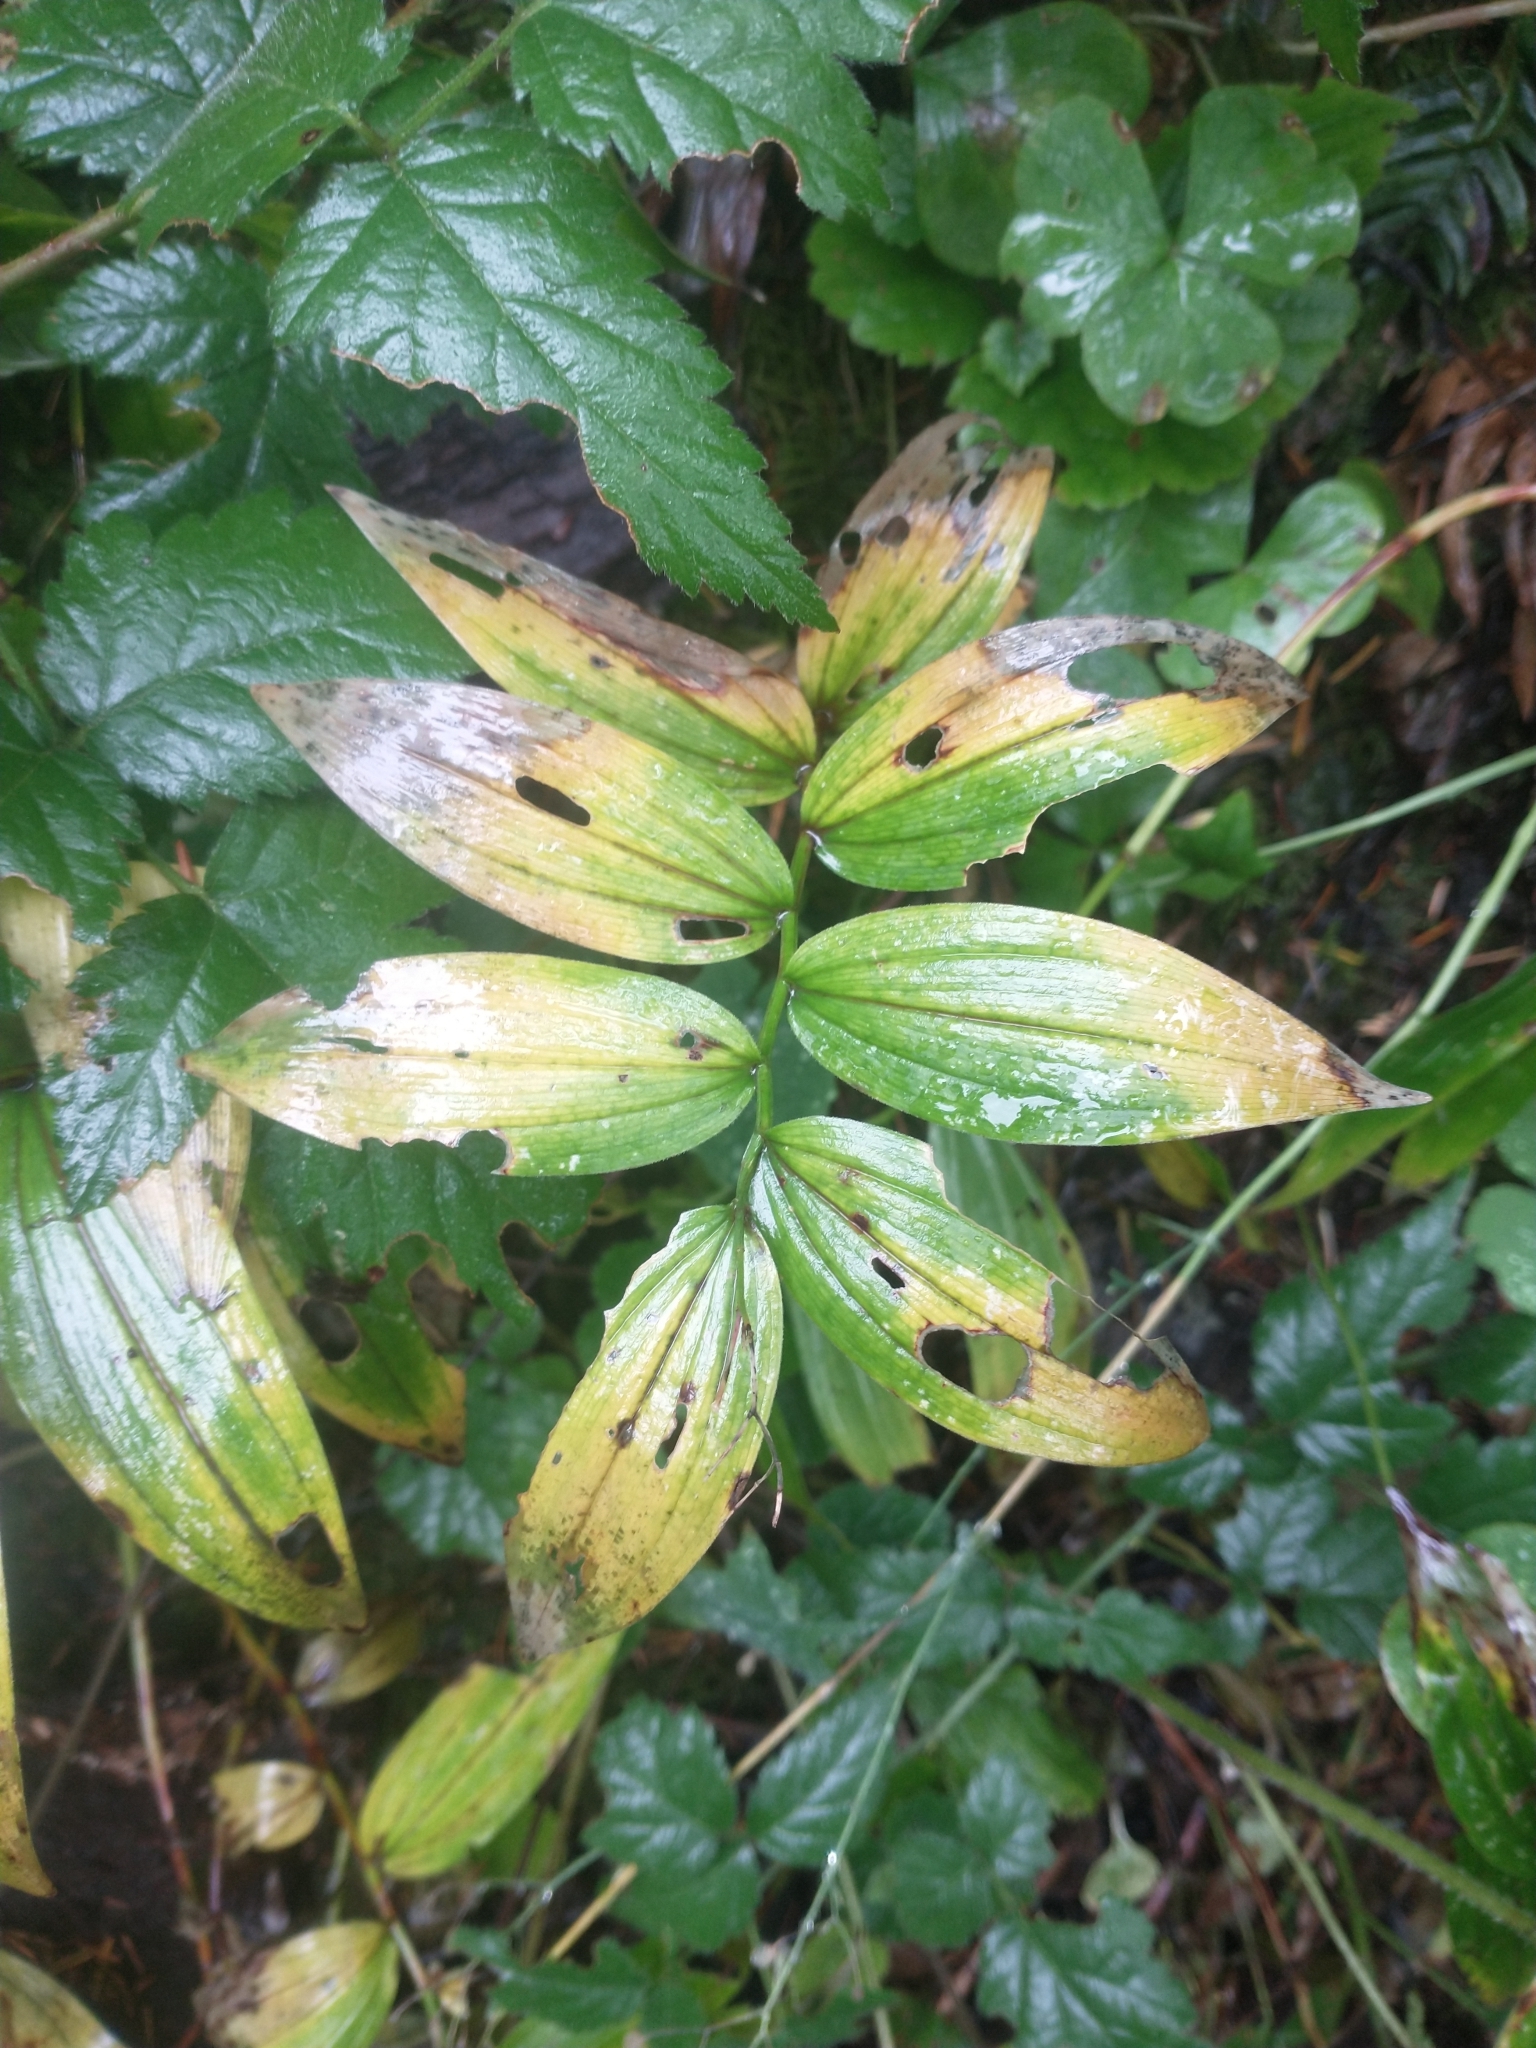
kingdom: Plantae
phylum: Tracheophyta
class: Liliopsida
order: Asparagales
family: Asparagaceae
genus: Maianthemum
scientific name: Maianthemum stellatum
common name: Little false solomon's seal
